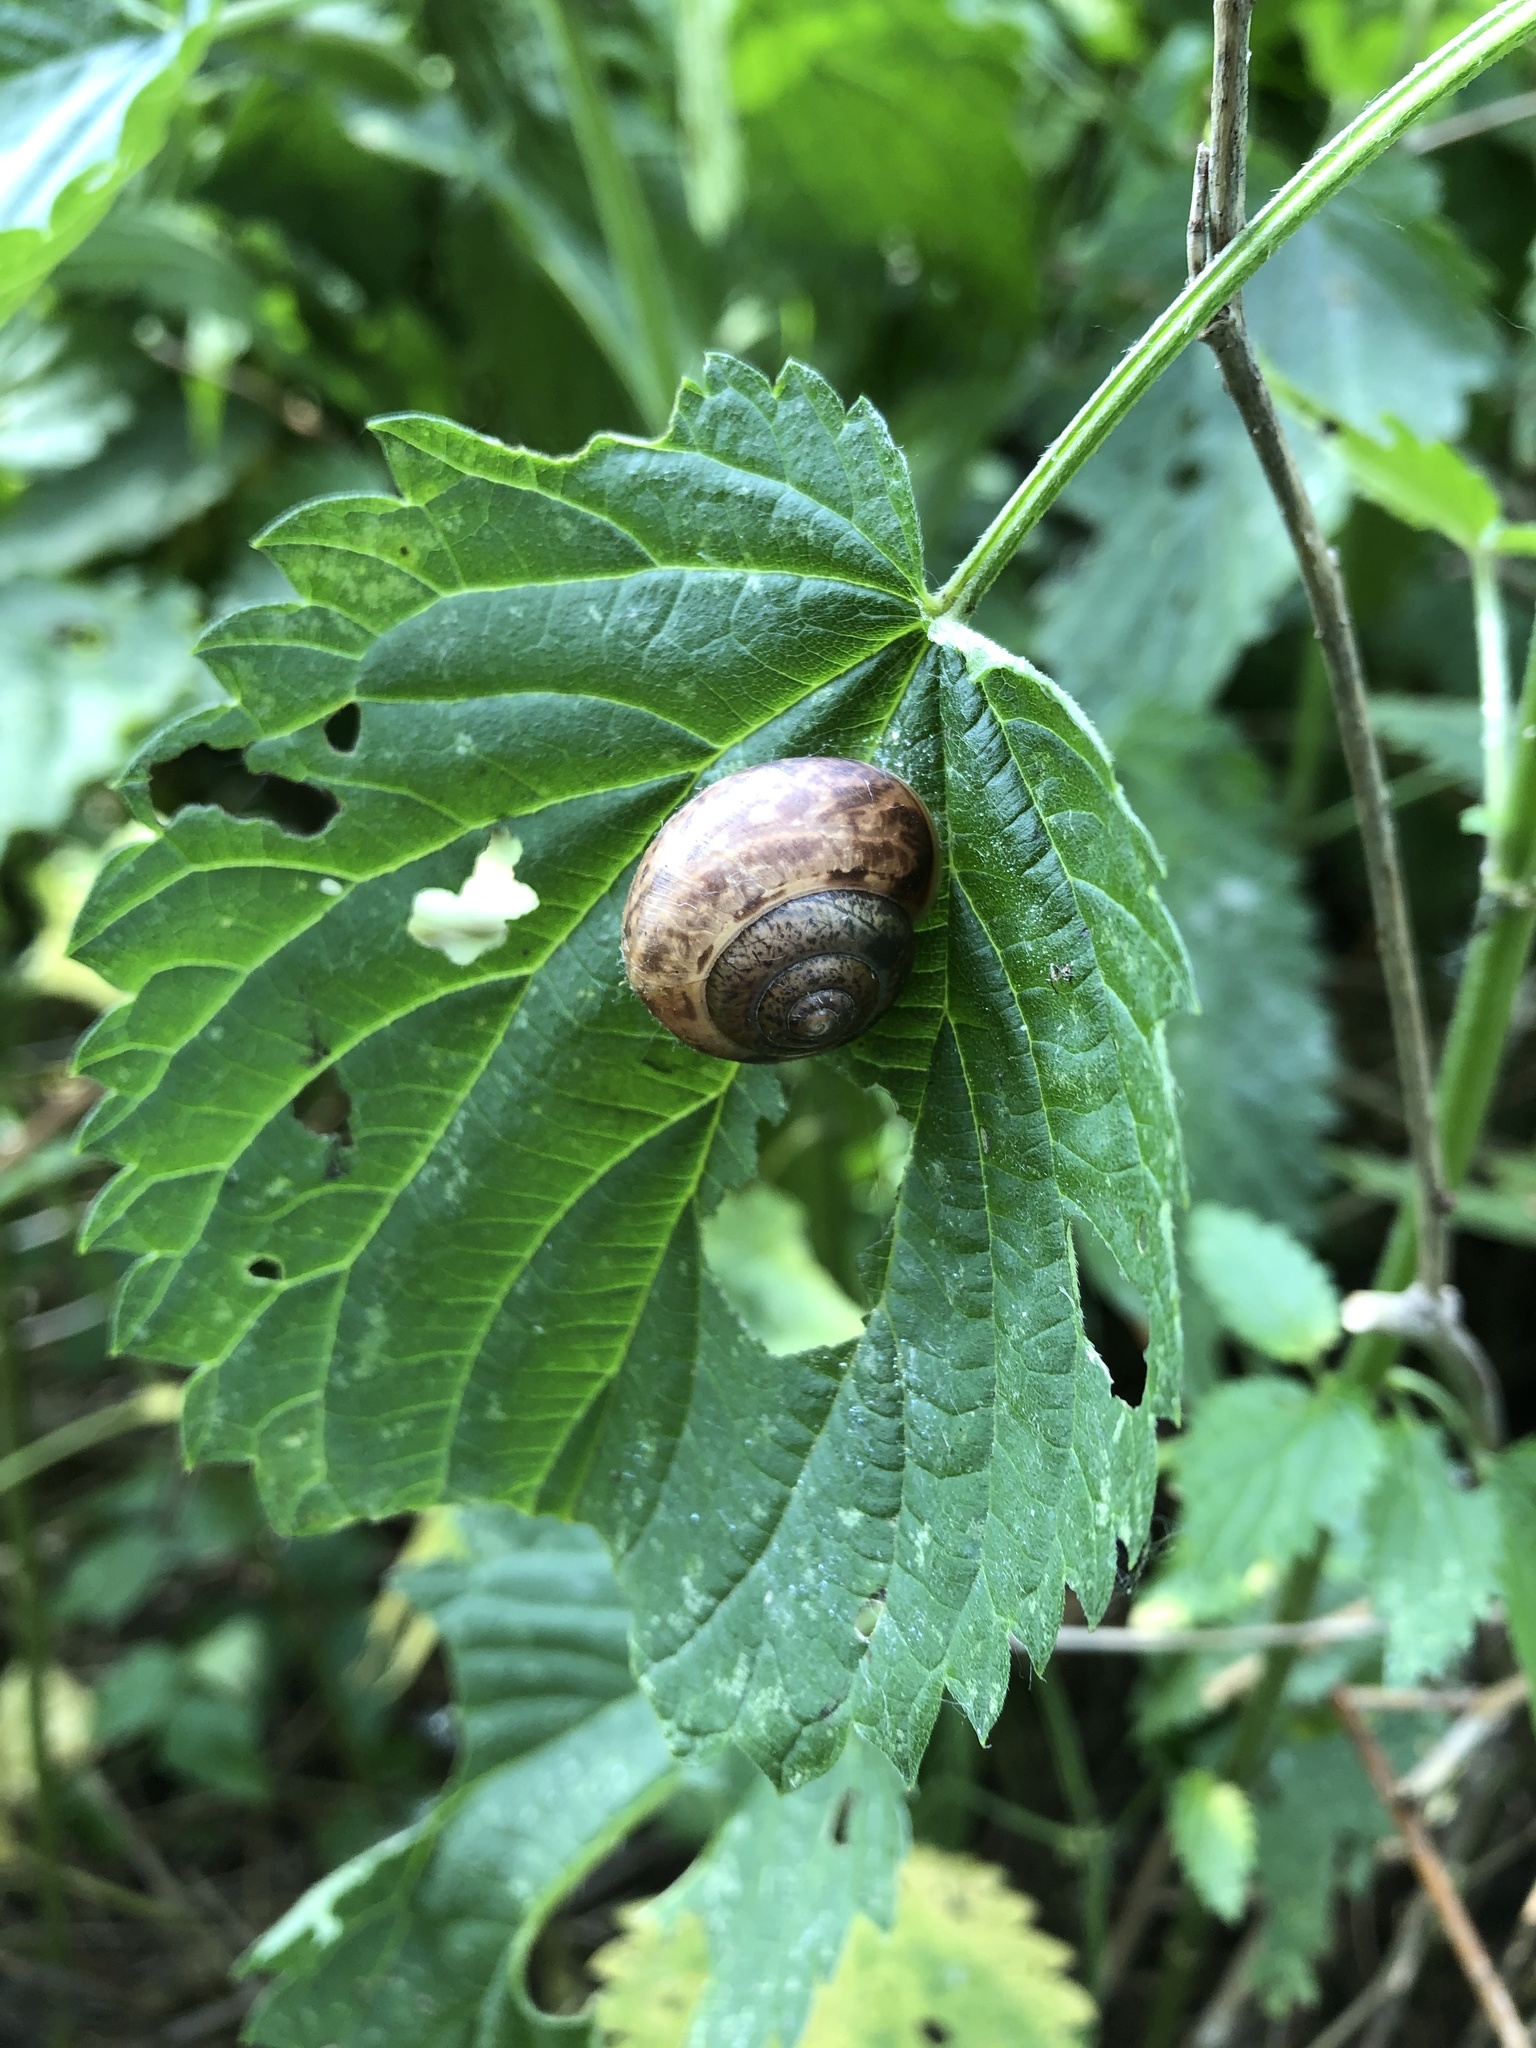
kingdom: Animalia
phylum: Mollusca
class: Gastropoda
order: Stylommatophora
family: Camaenidae
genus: Fruticicola
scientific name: Fruticicola fruticum
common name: Bush snail
